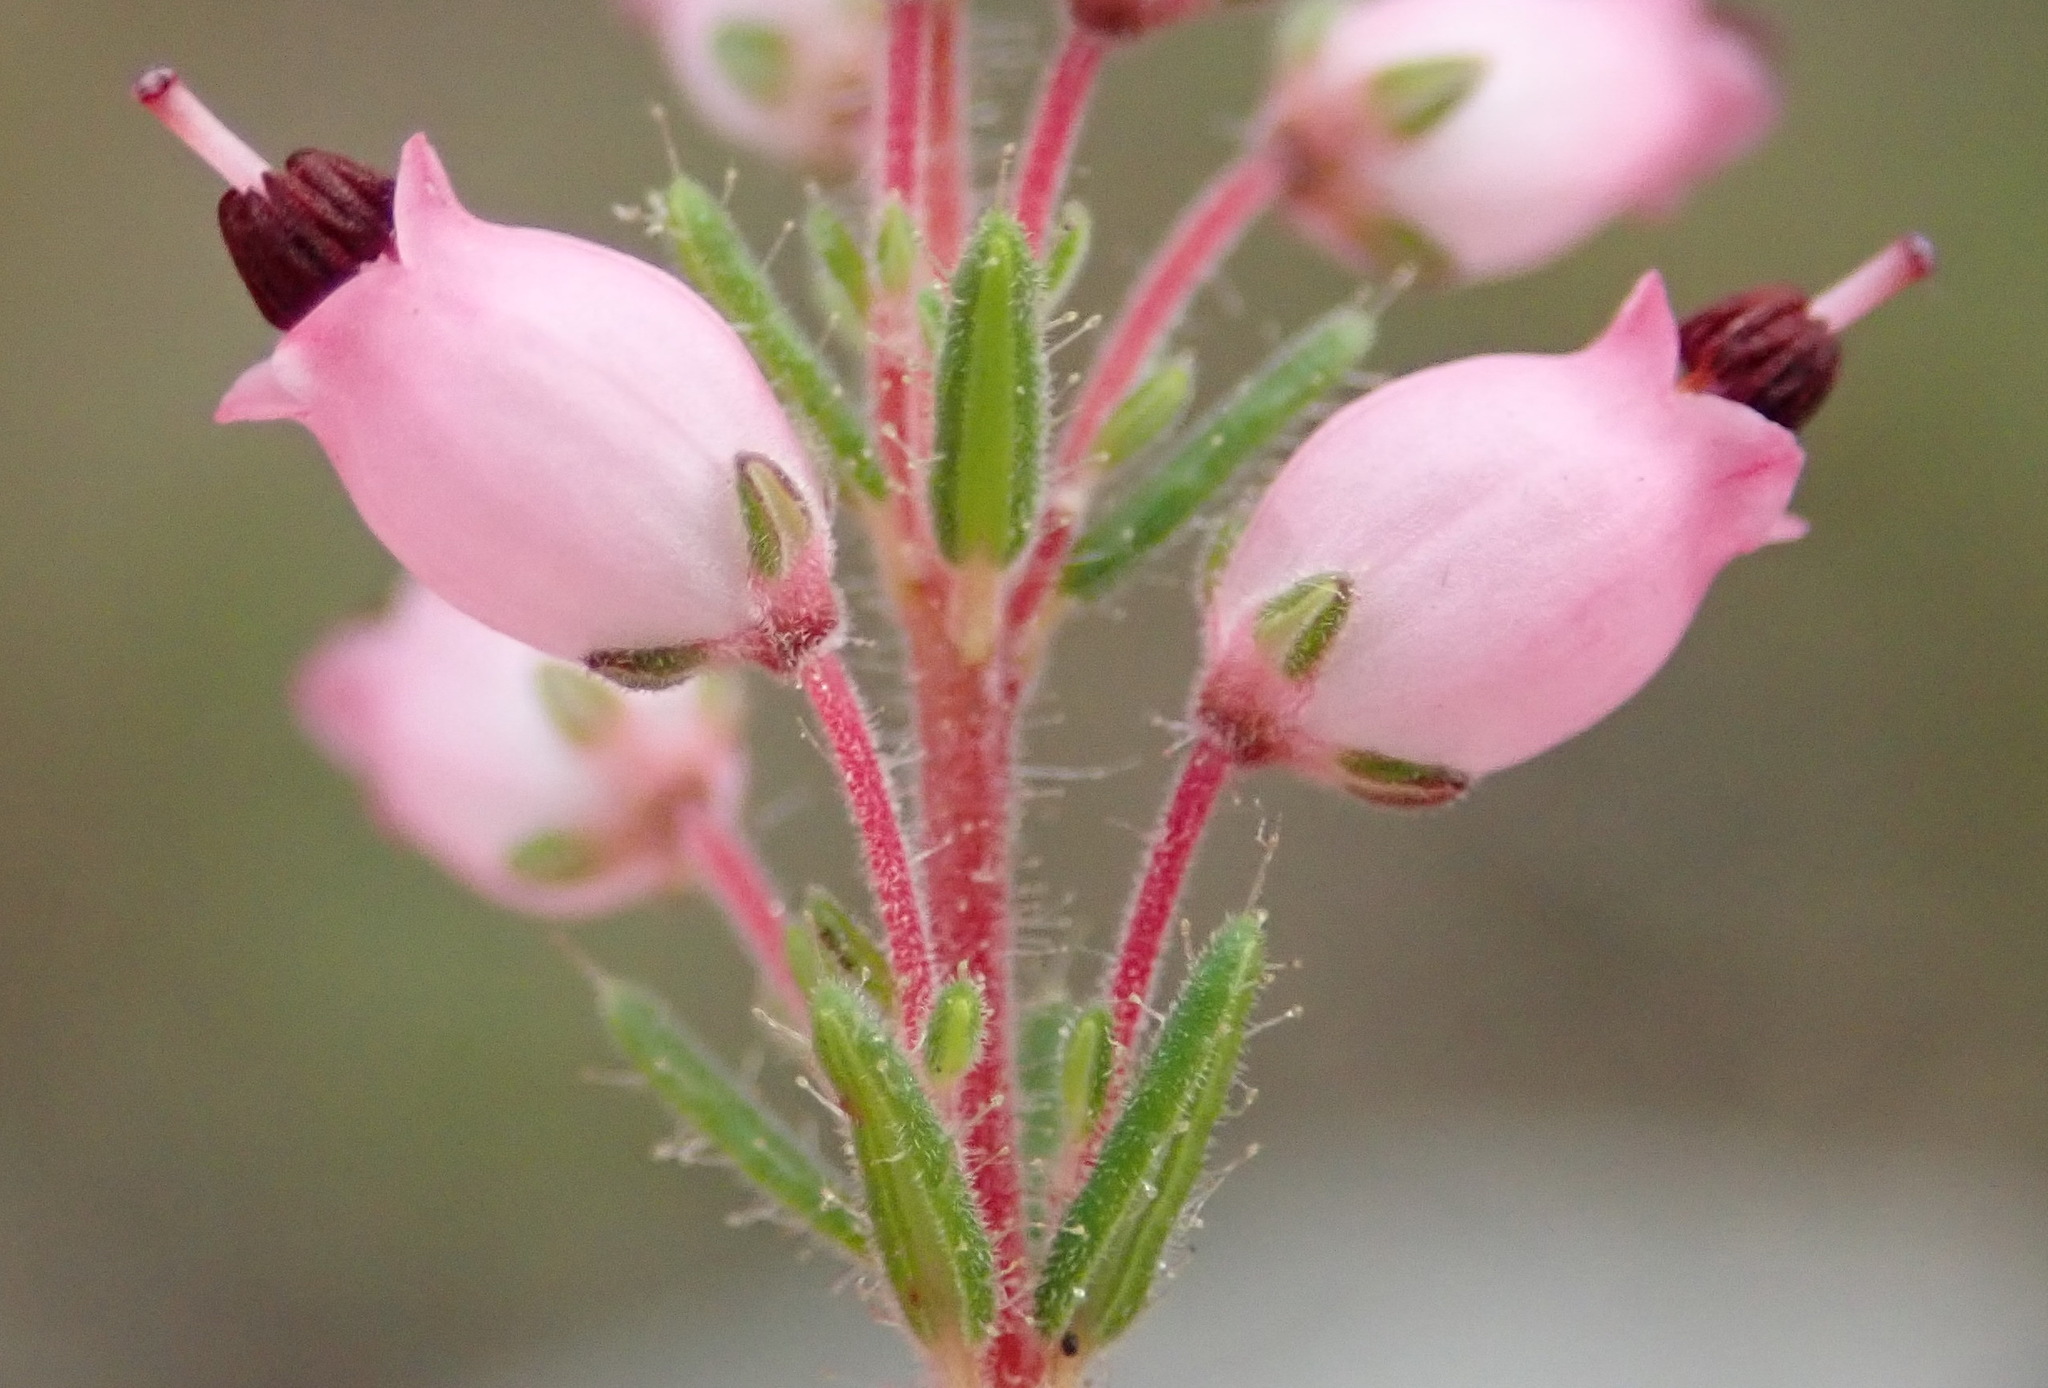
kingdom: Plantae
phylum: Tracheophyta
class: Magnoliopsida
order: Ericales
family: Ericaceae
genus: Erica
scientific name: Erica racemosa
